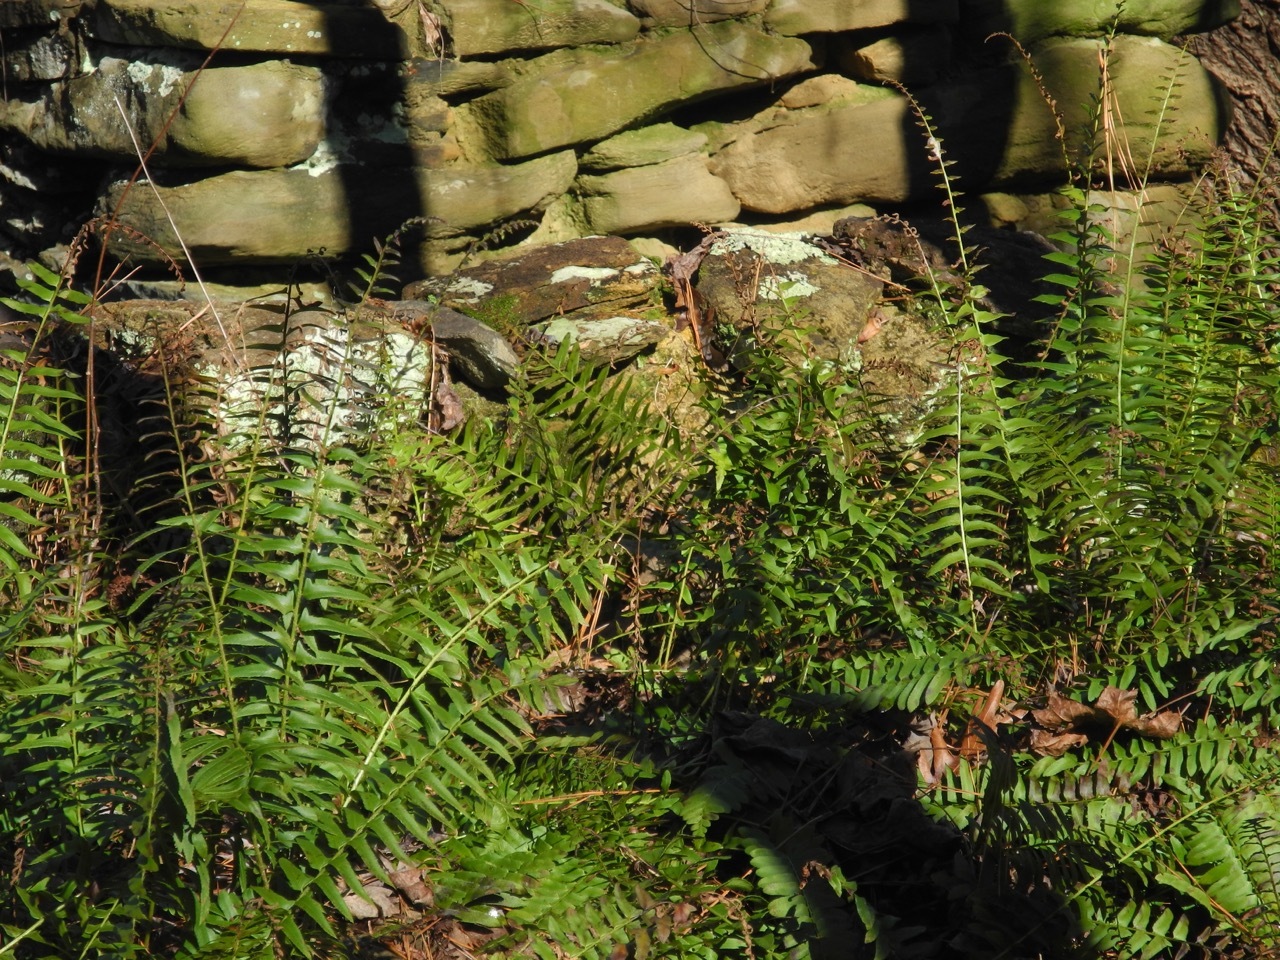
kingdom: Plantae
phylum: Tracheophyta
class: Polypodiopsida
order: Polypodiales
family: Dryopteridaceae
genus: Polystichum
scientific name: Polystichum acrostichoides
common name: Christmas fern
